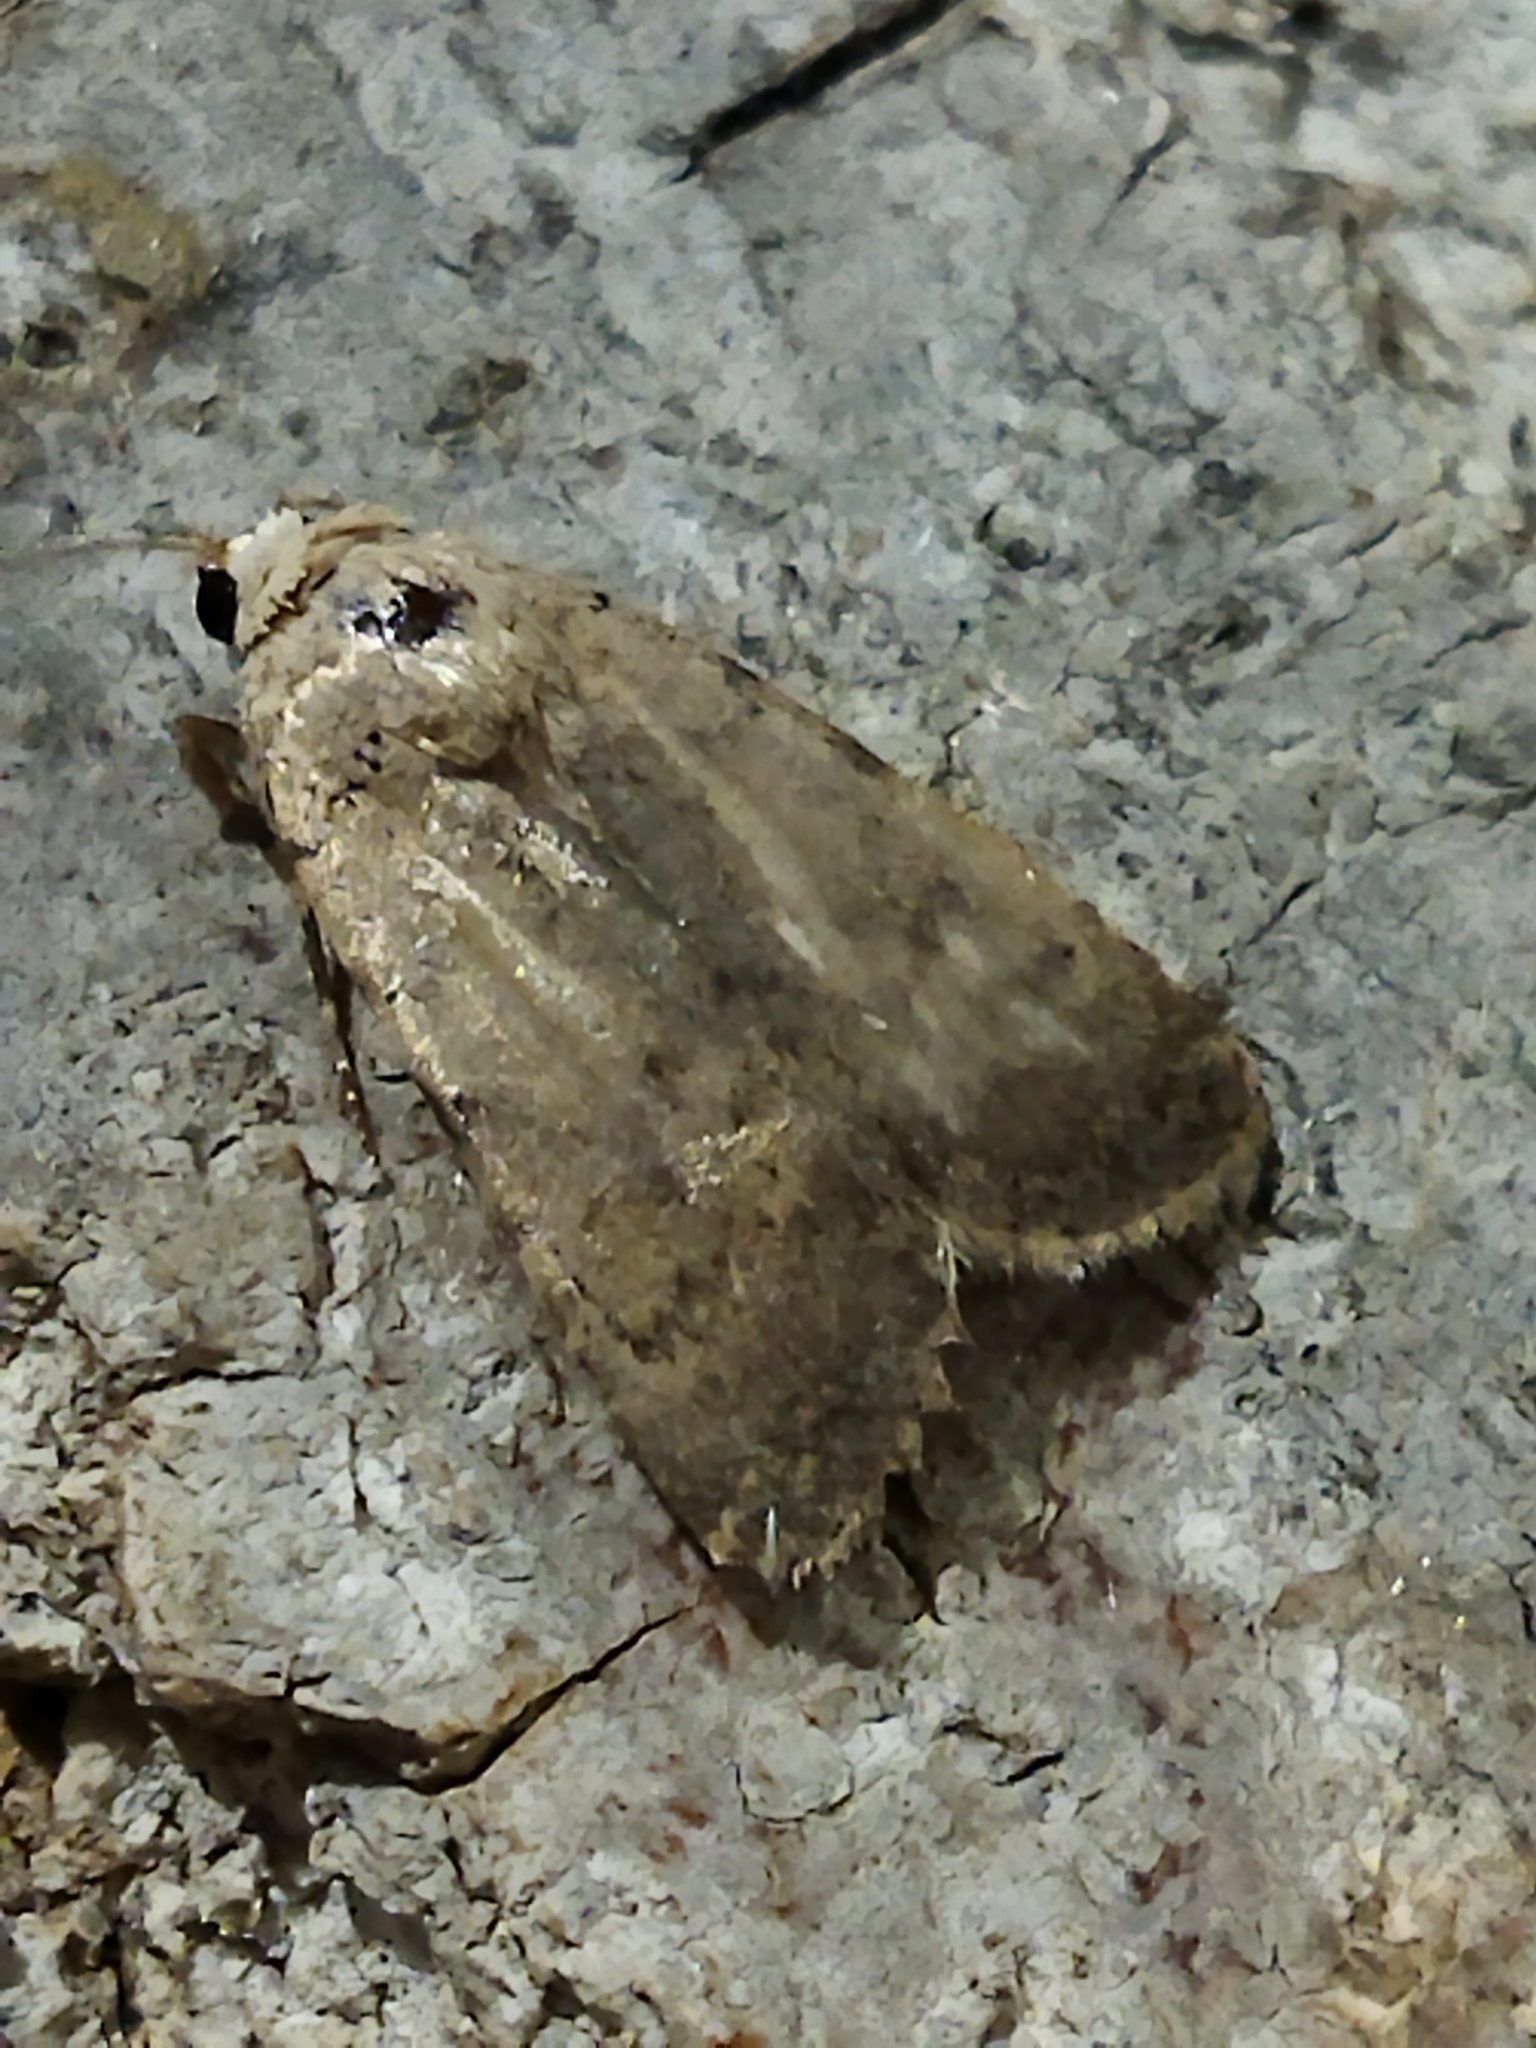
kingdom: Animalia
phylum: Arthropoda
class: Insecta
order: Lepidoptera
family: Noctuidae
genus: Caradrina
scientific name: Caradrina
